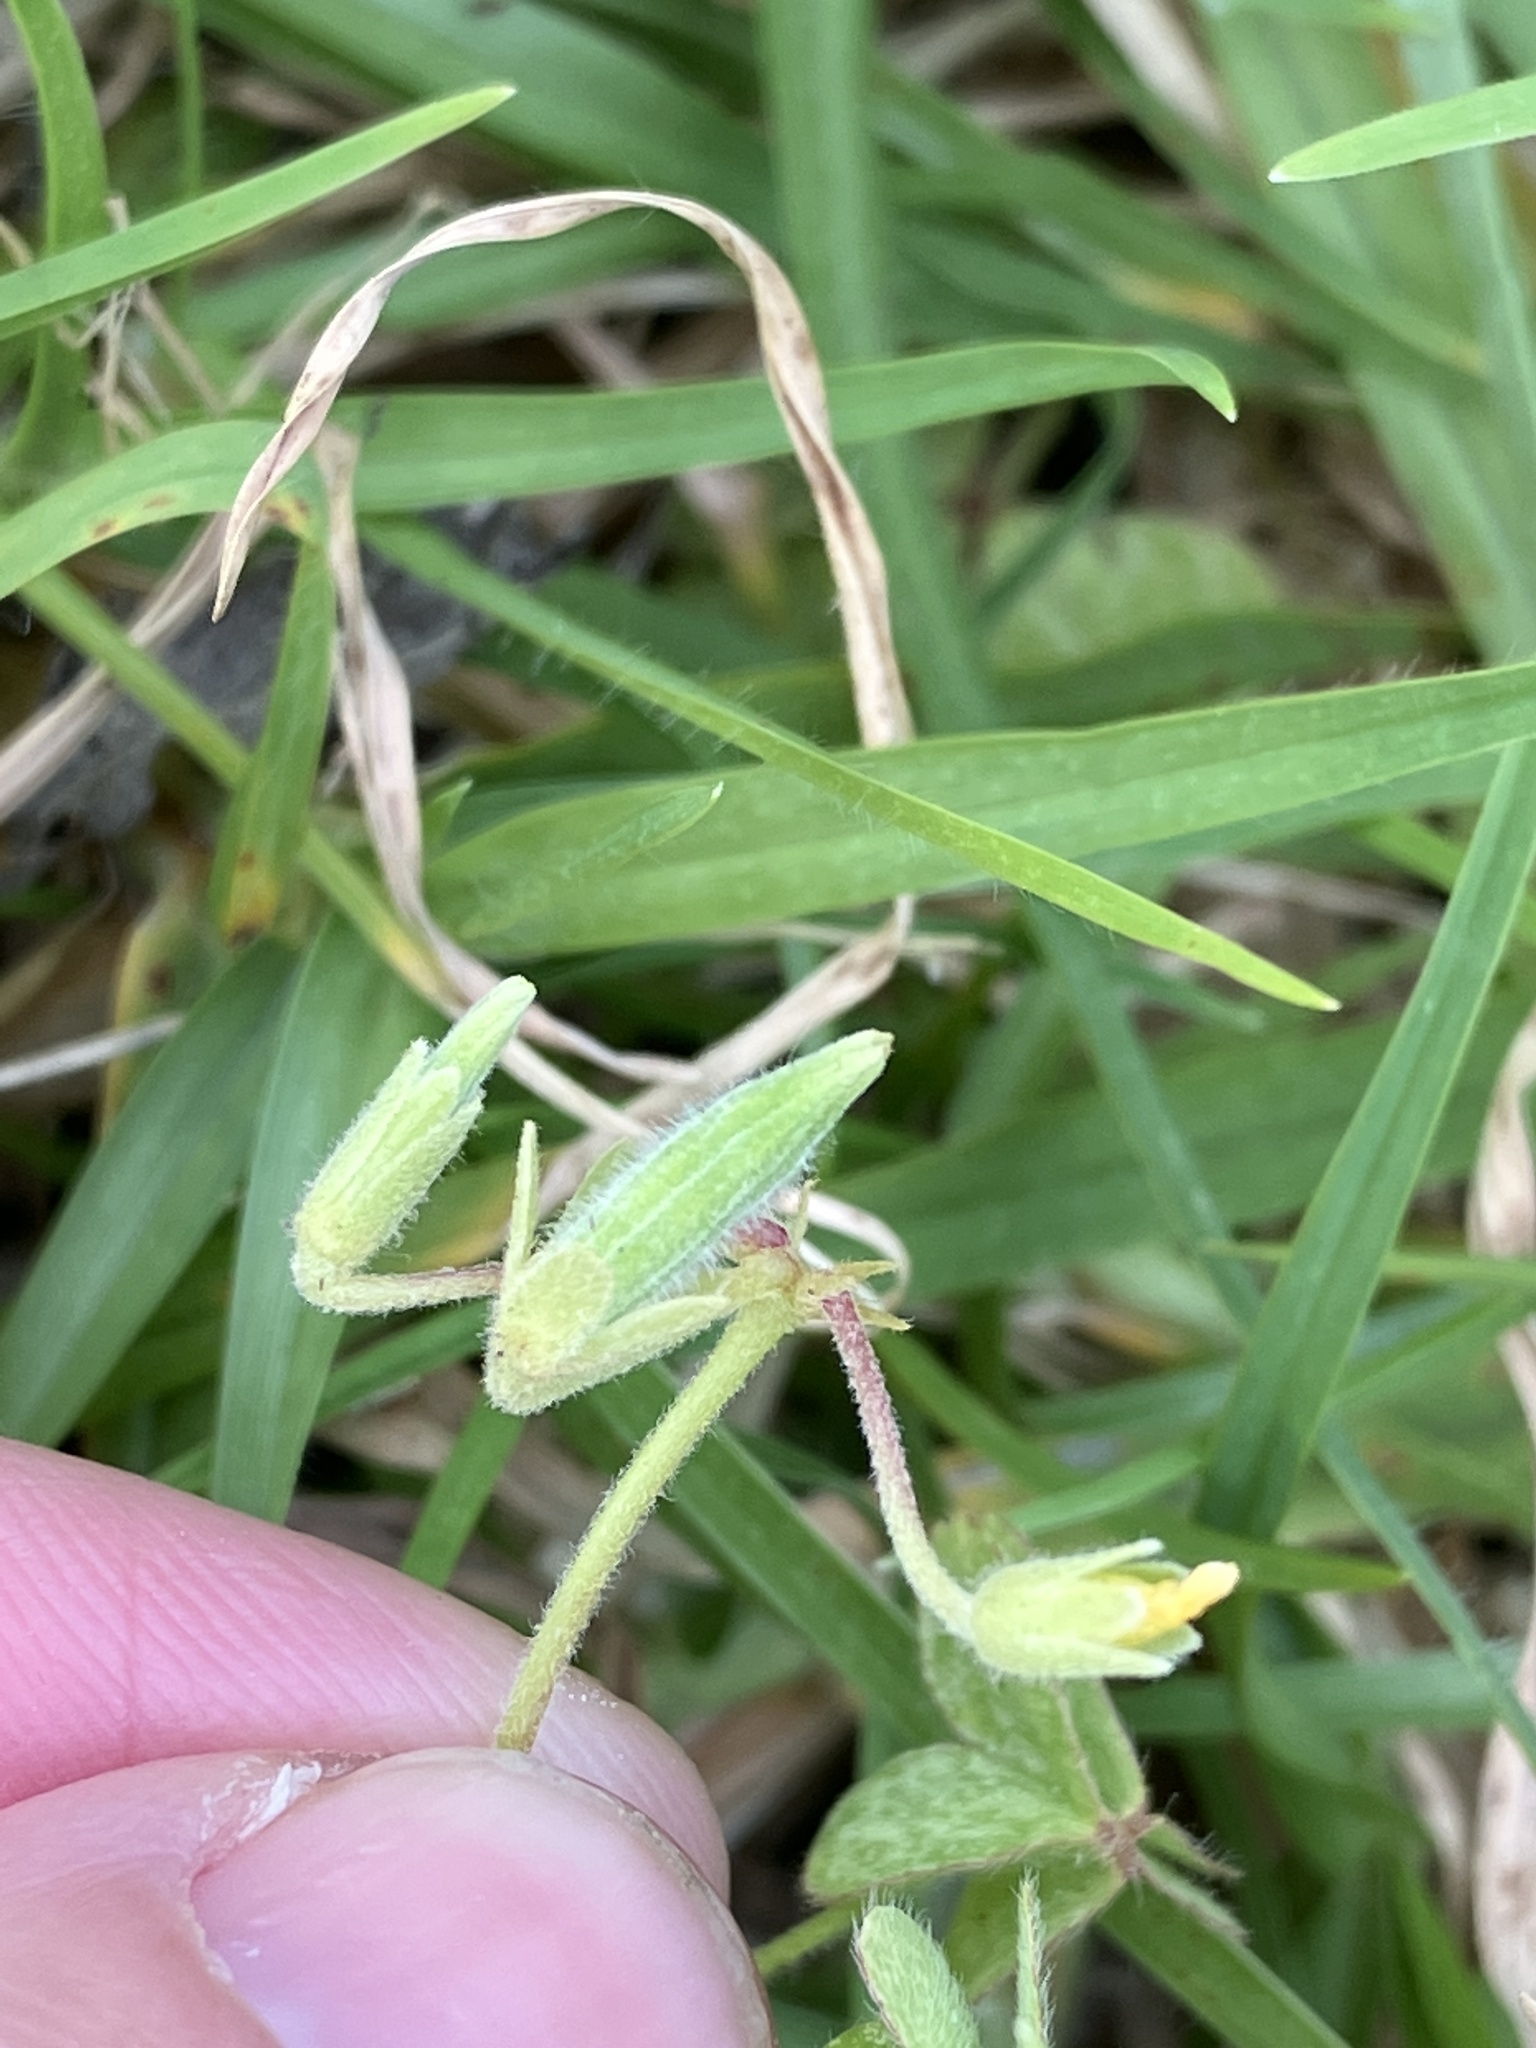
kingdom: Plantae
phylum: Tracheophyta
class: Magnoliopsida
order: Oxalidales
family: Oxalidaceae
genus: Oxalis
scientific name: Oxalis corniculata
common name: Procumbent yellow-sorrel
